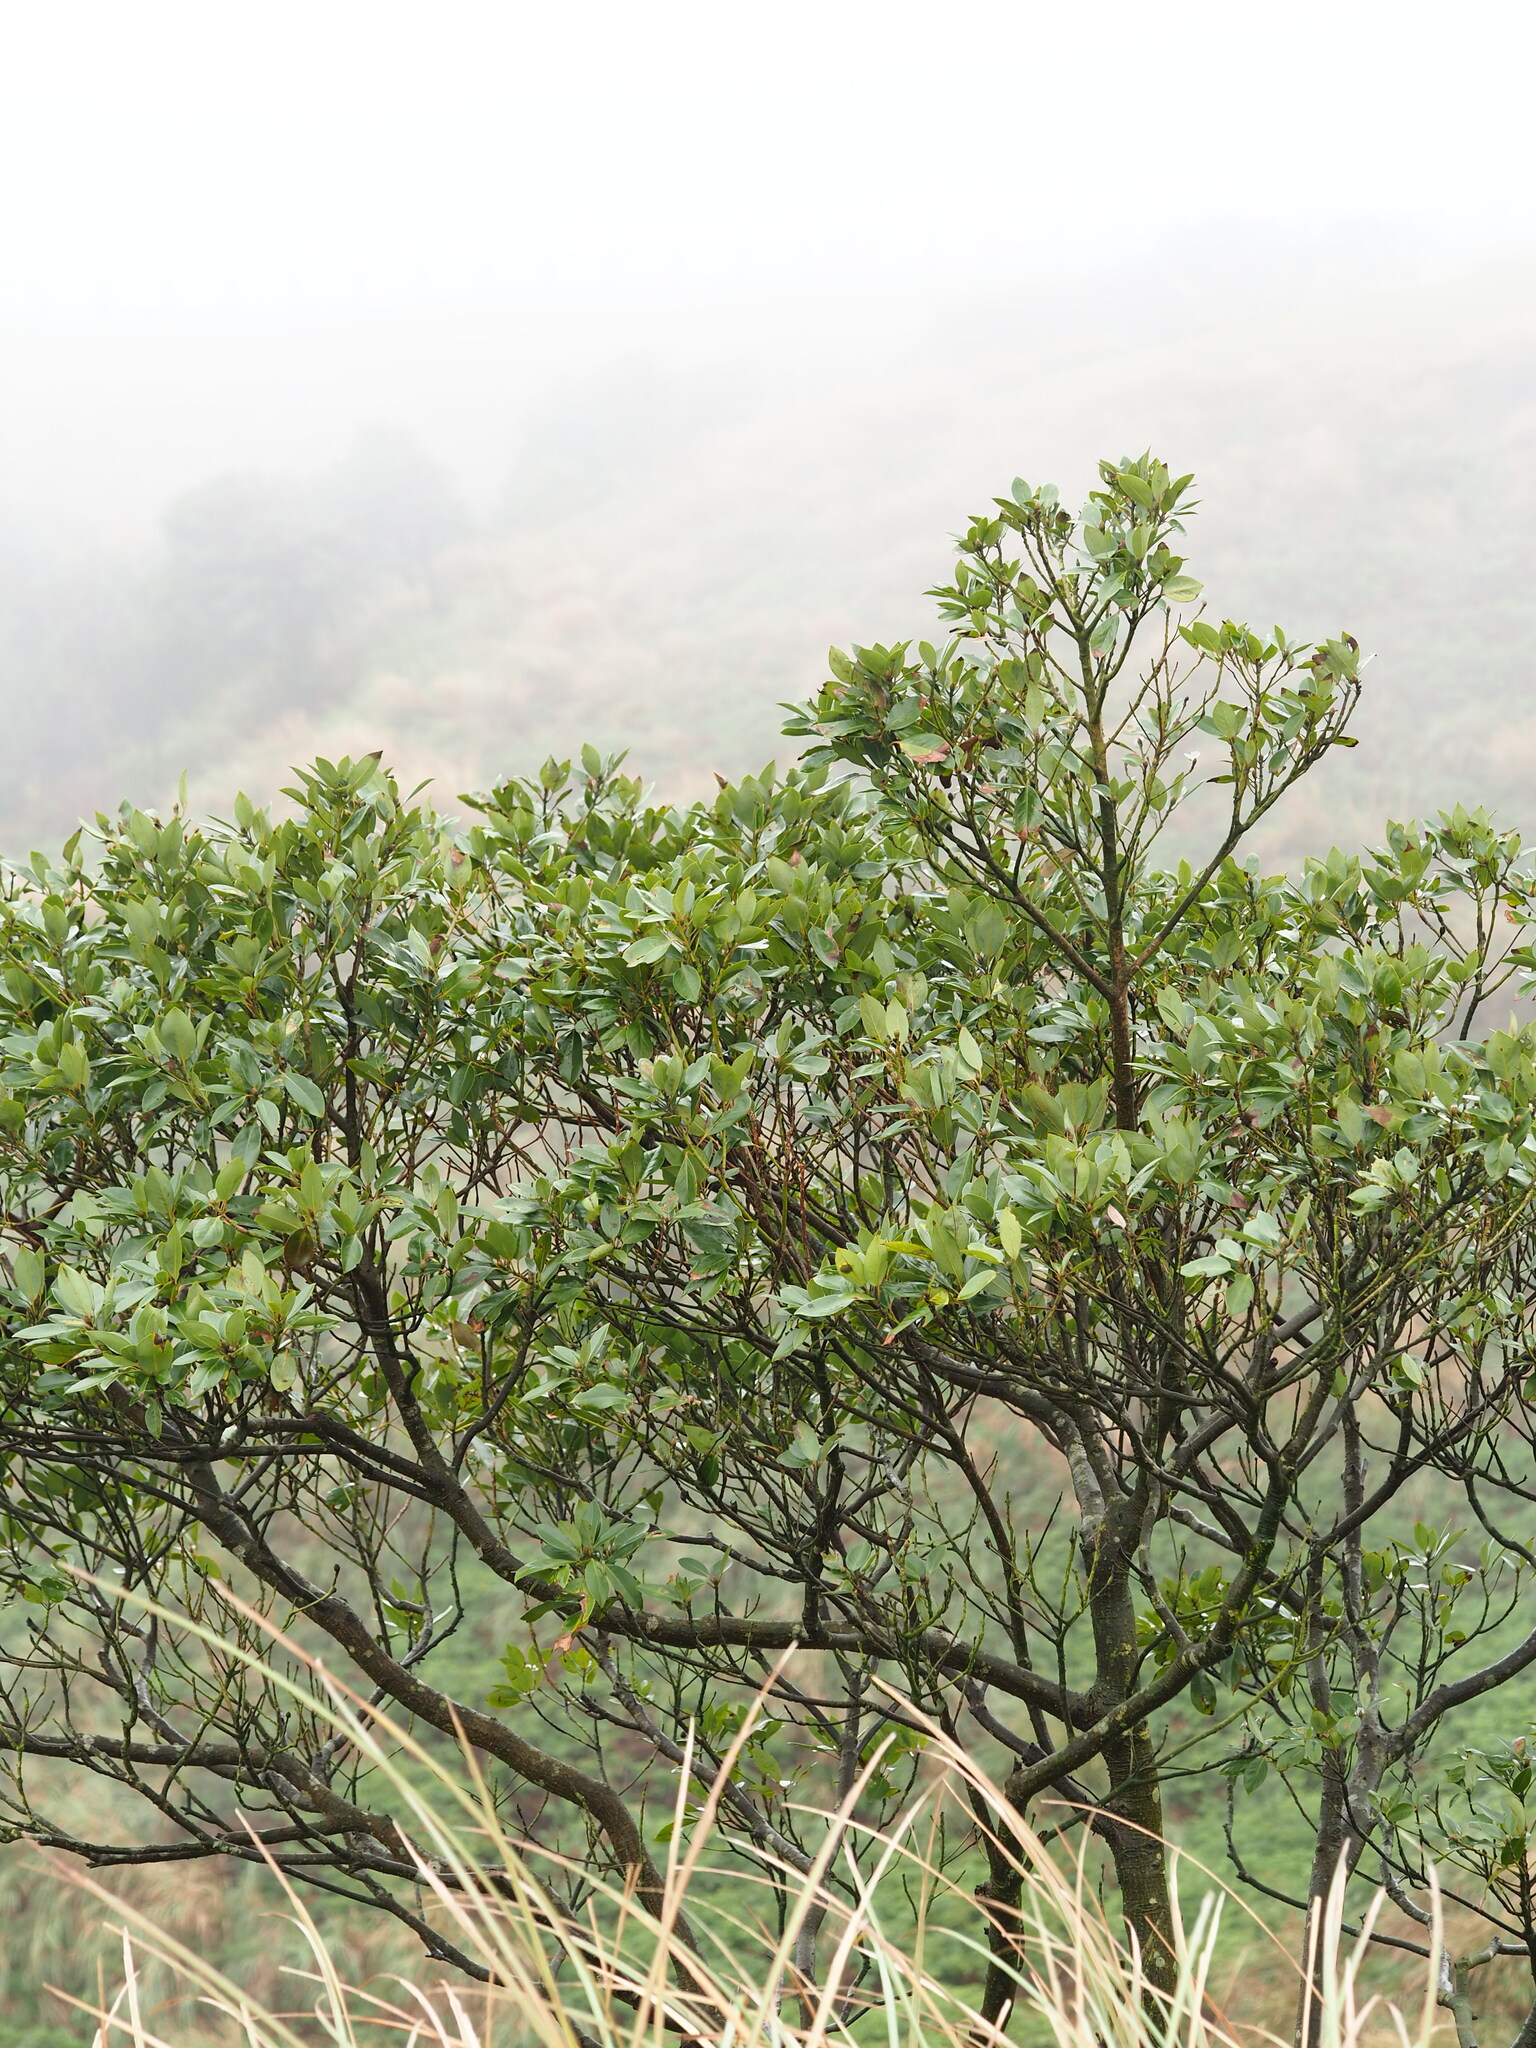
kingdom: Plantae
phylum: Tracheophyta
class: Magnoliopsida
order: Laurales
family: Lauraceae
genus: Machilus
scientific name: Machilus thunbergii
